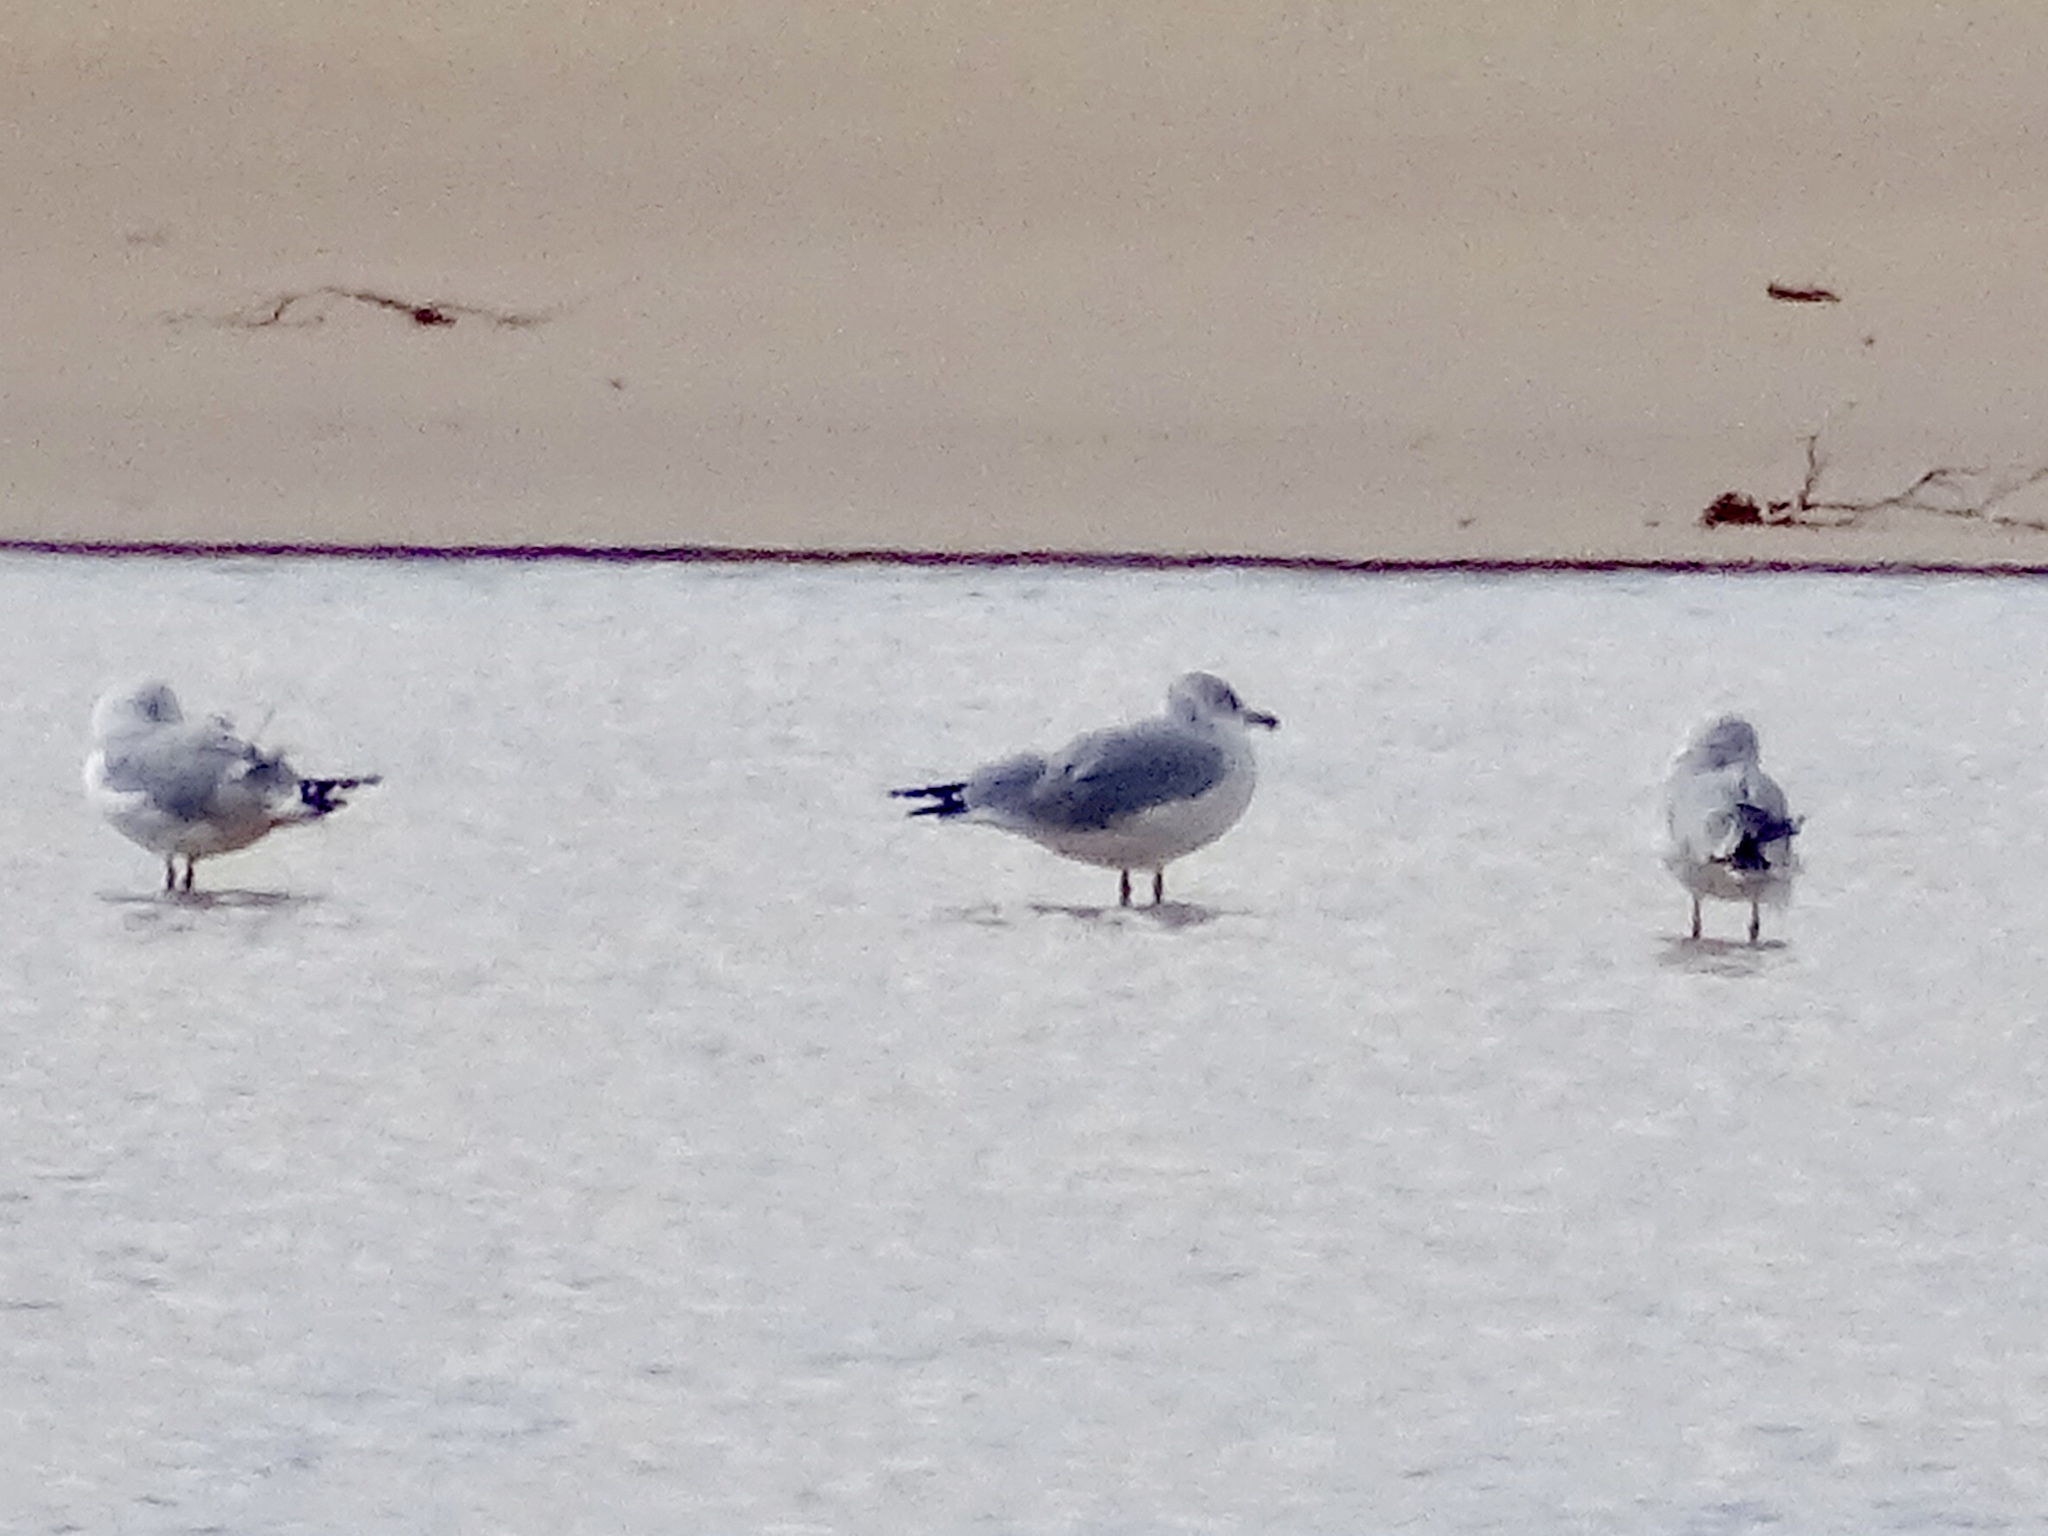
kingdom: Animalia
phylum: Chordata
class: Aves
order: Charadriiformes
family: Laridae
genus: Larus
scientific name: Larus delawarensis
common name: Ring-billed gull
